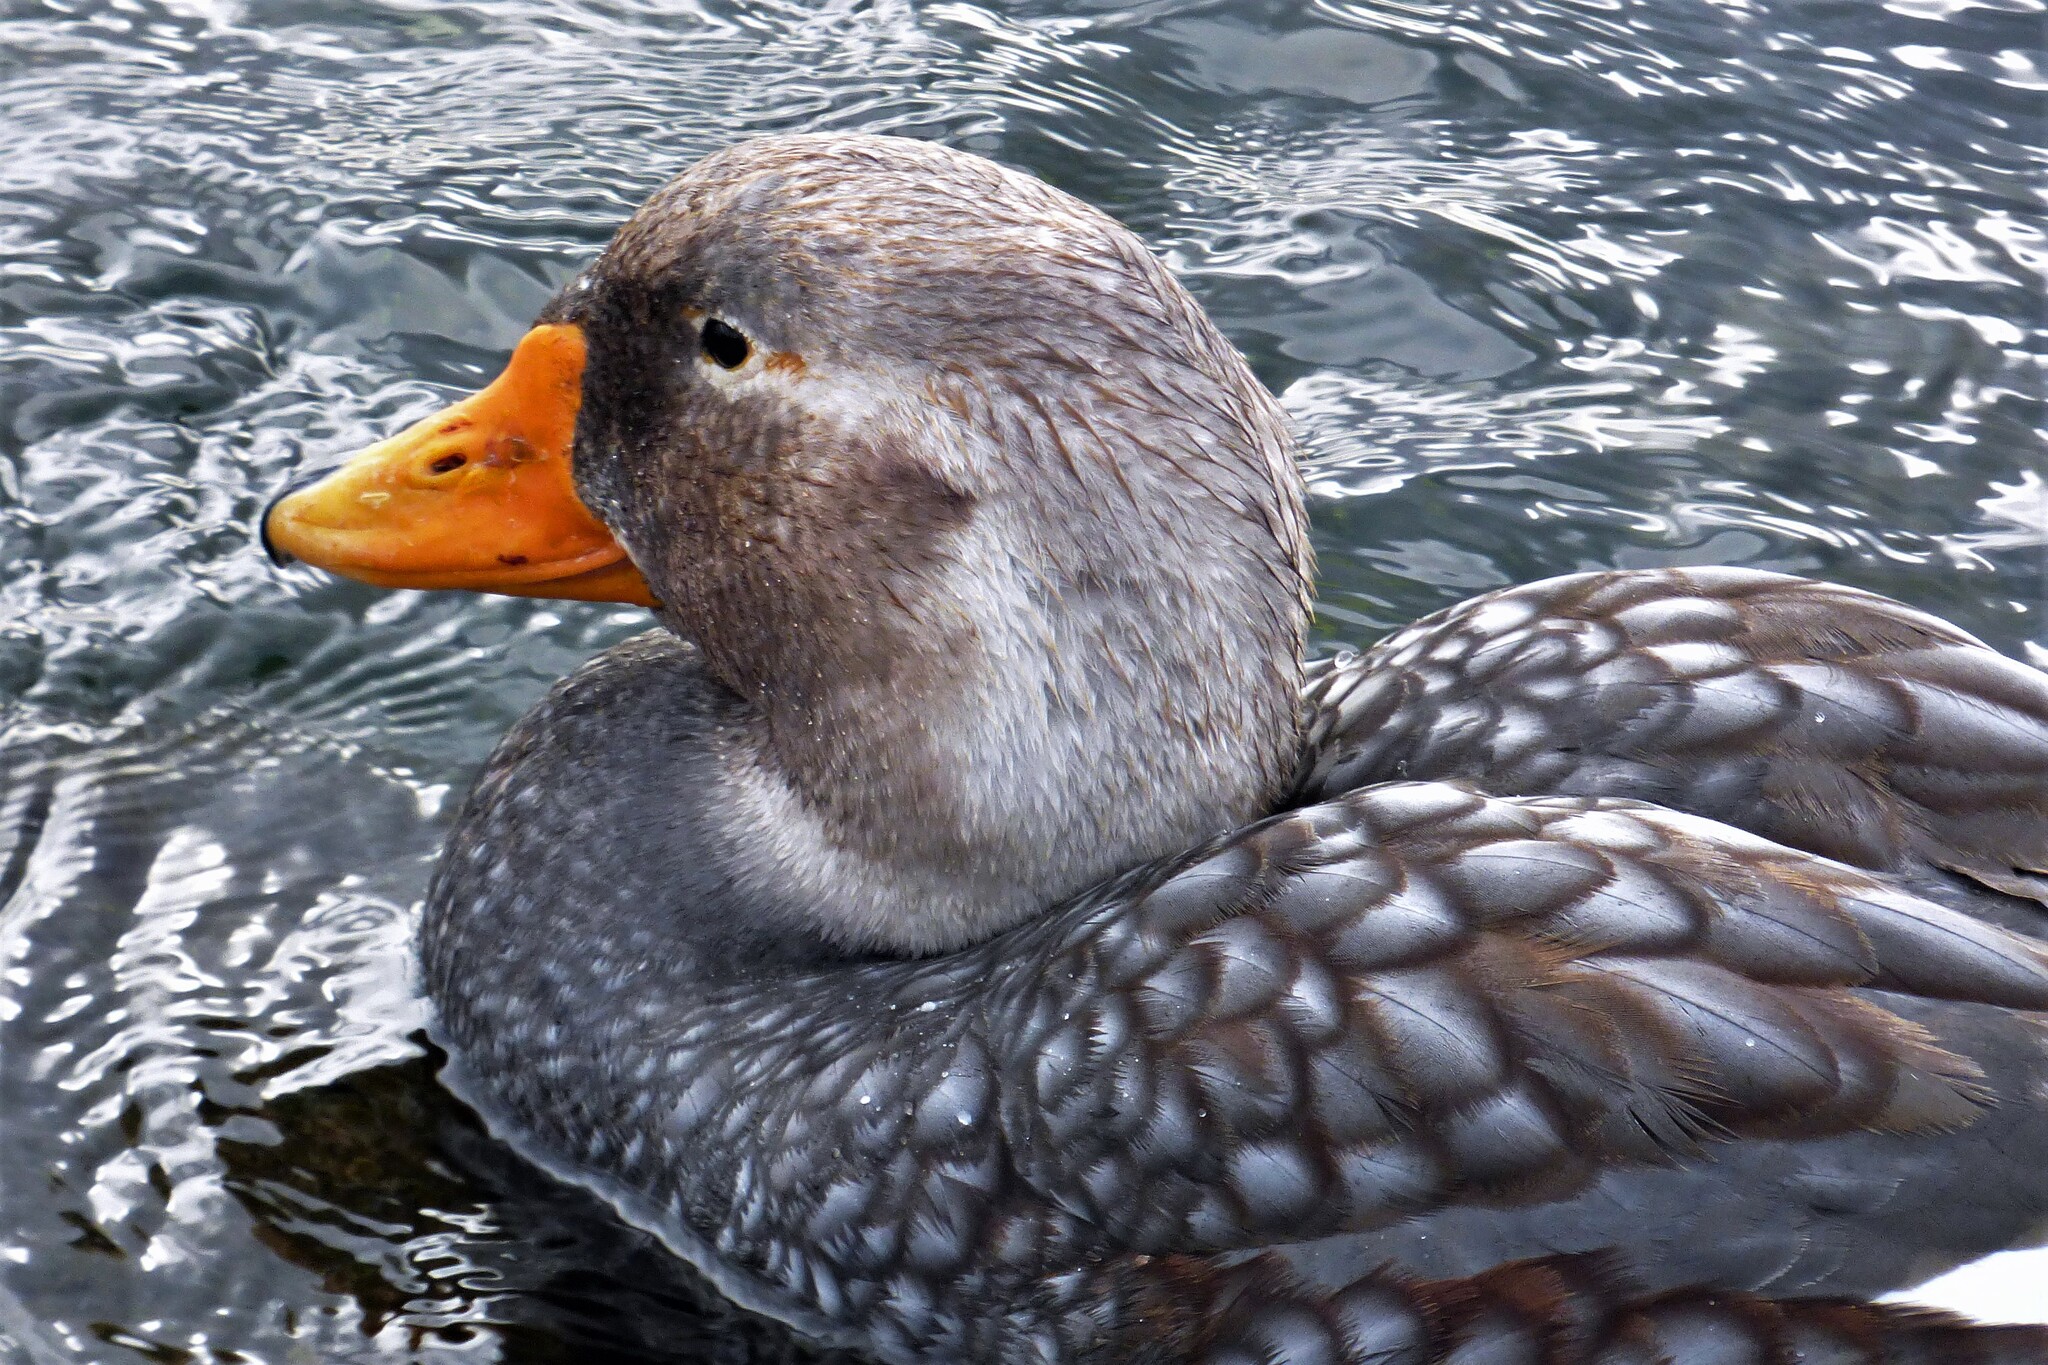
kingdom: Animalia
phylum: Chordata
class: Aves
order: Anseriformes
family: Anatidae
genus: Tachyeres
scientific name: Tachyeres brachypterus
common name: Falkland steamer duck
